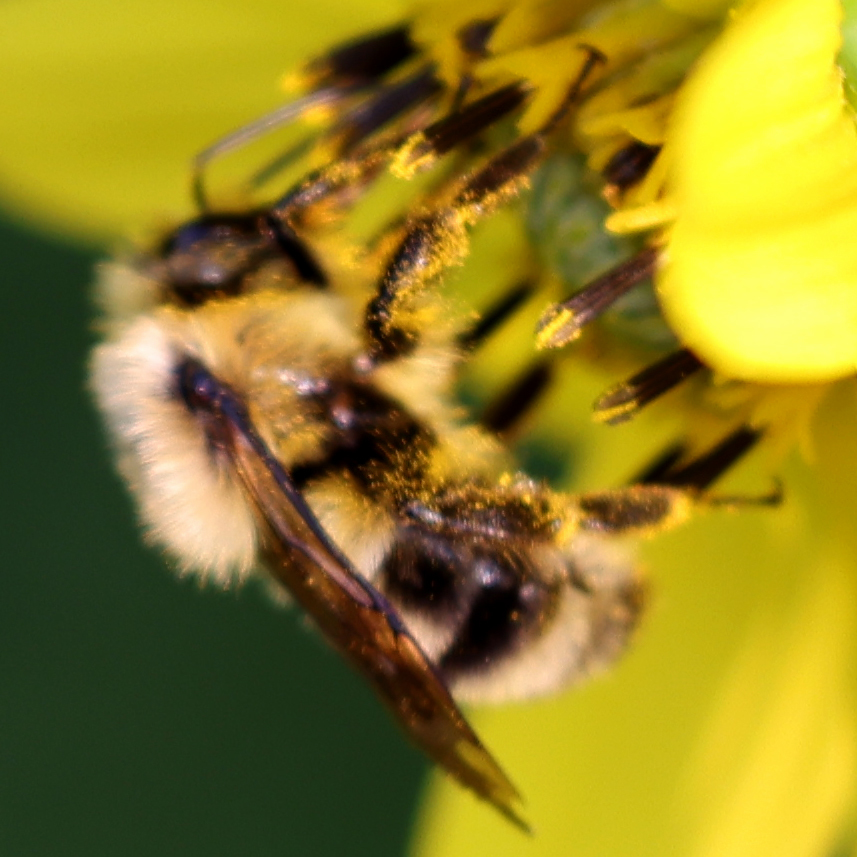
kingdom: Animalia
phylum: Arthropoda
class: Insecta
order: Hymenoptera
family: Apidae
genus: Bombus
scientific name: Bombus bimaculatus
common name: Two-spotted bumble bee
